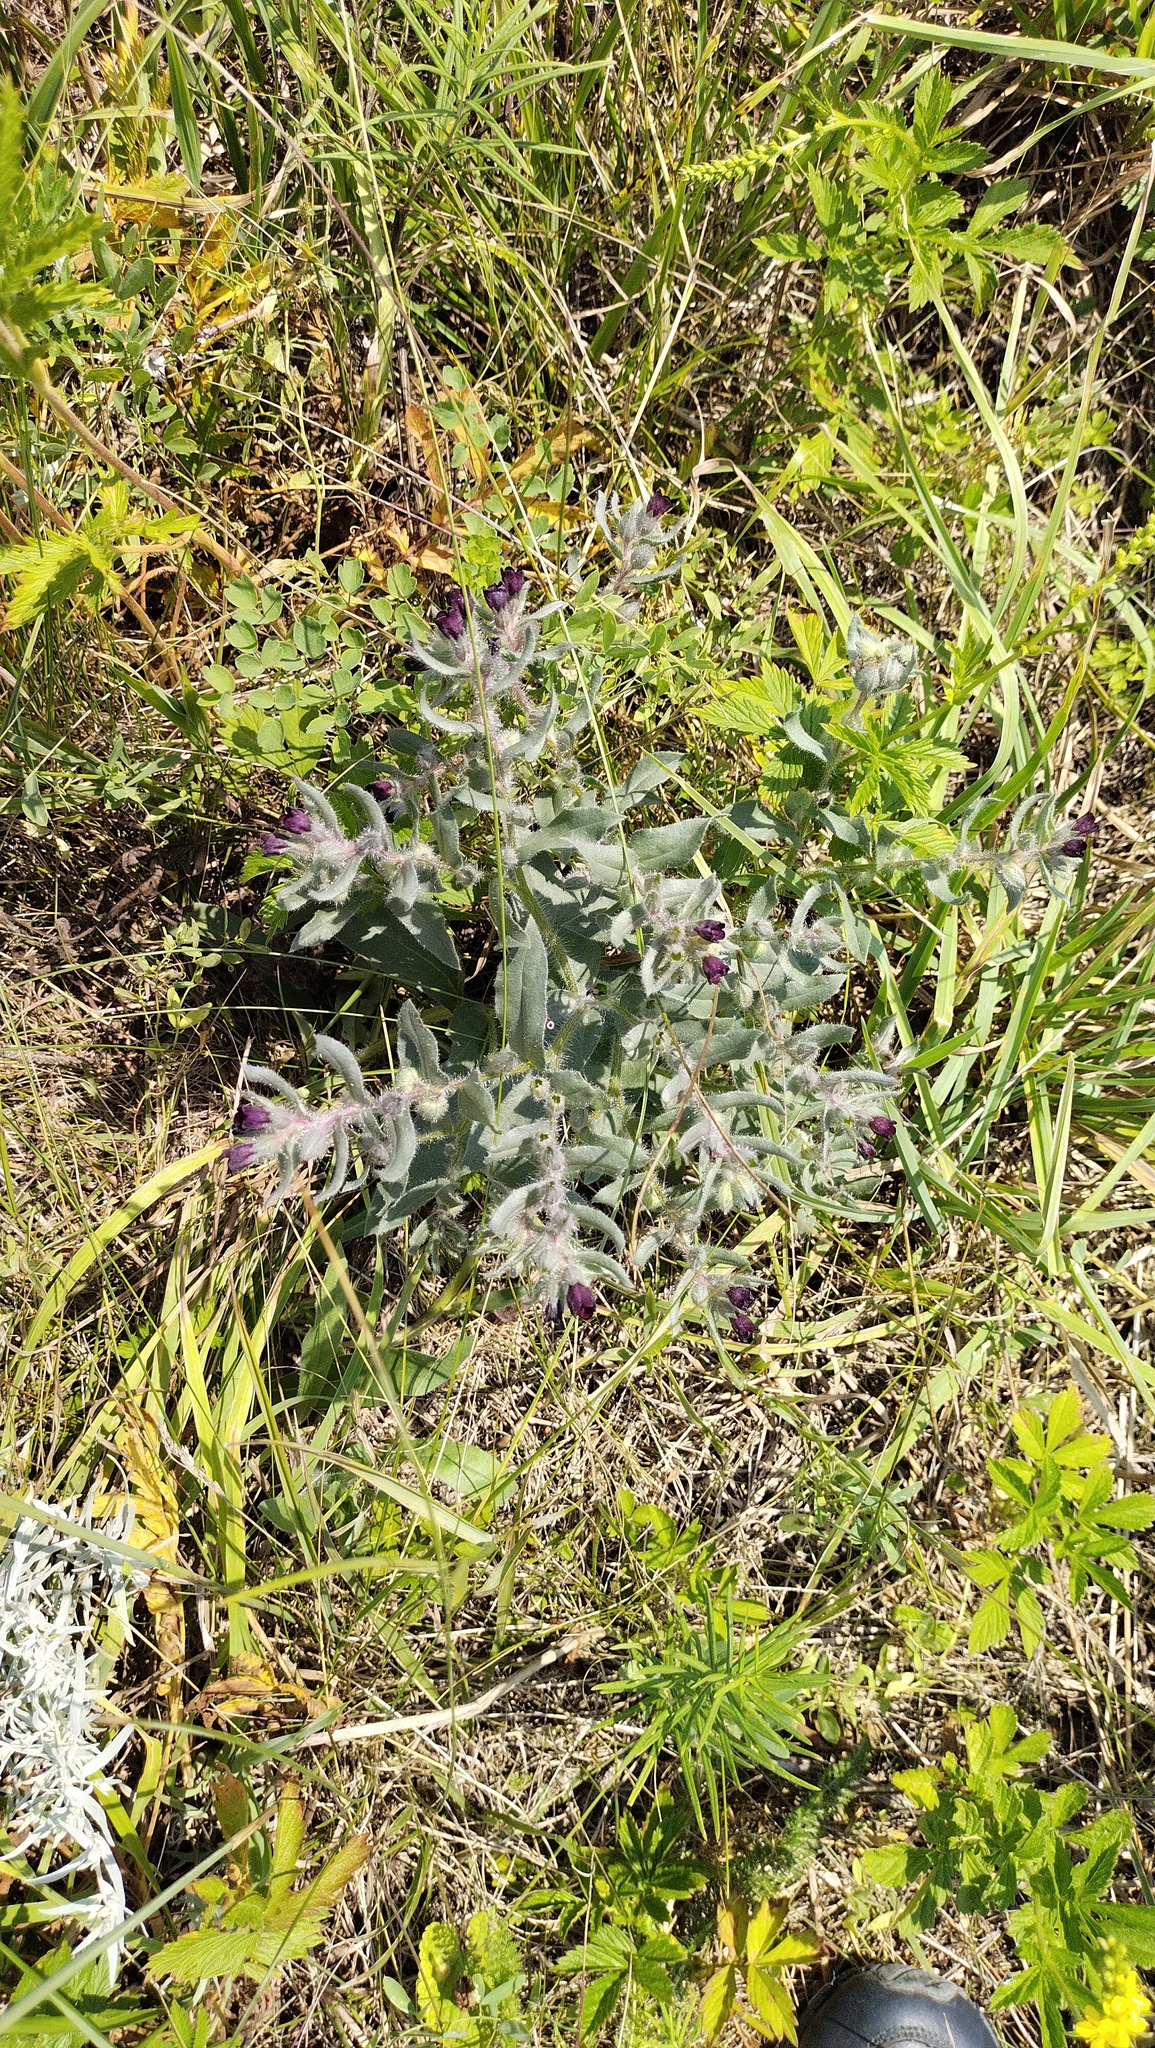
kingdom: Plantae
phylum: Tracheophyta
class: Magnoliopsida
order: Boraginales
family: Boraginaceae
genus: Nonea
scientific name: Nonea pulla
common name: Brown nonea
